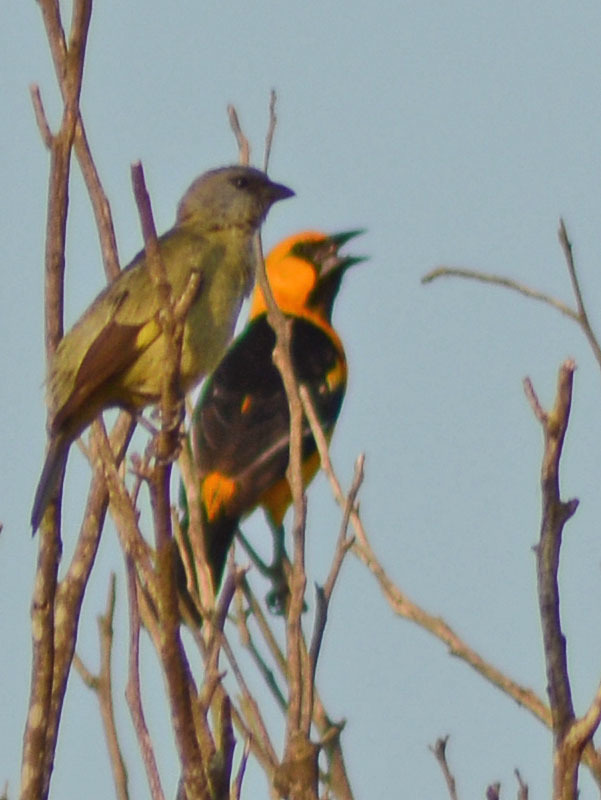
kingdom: Animalia
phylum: Chordata
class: Aves
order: Passeriformes
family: Icteridae
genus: Icterus
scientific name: Icterus gularis
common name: Altamira oriole
